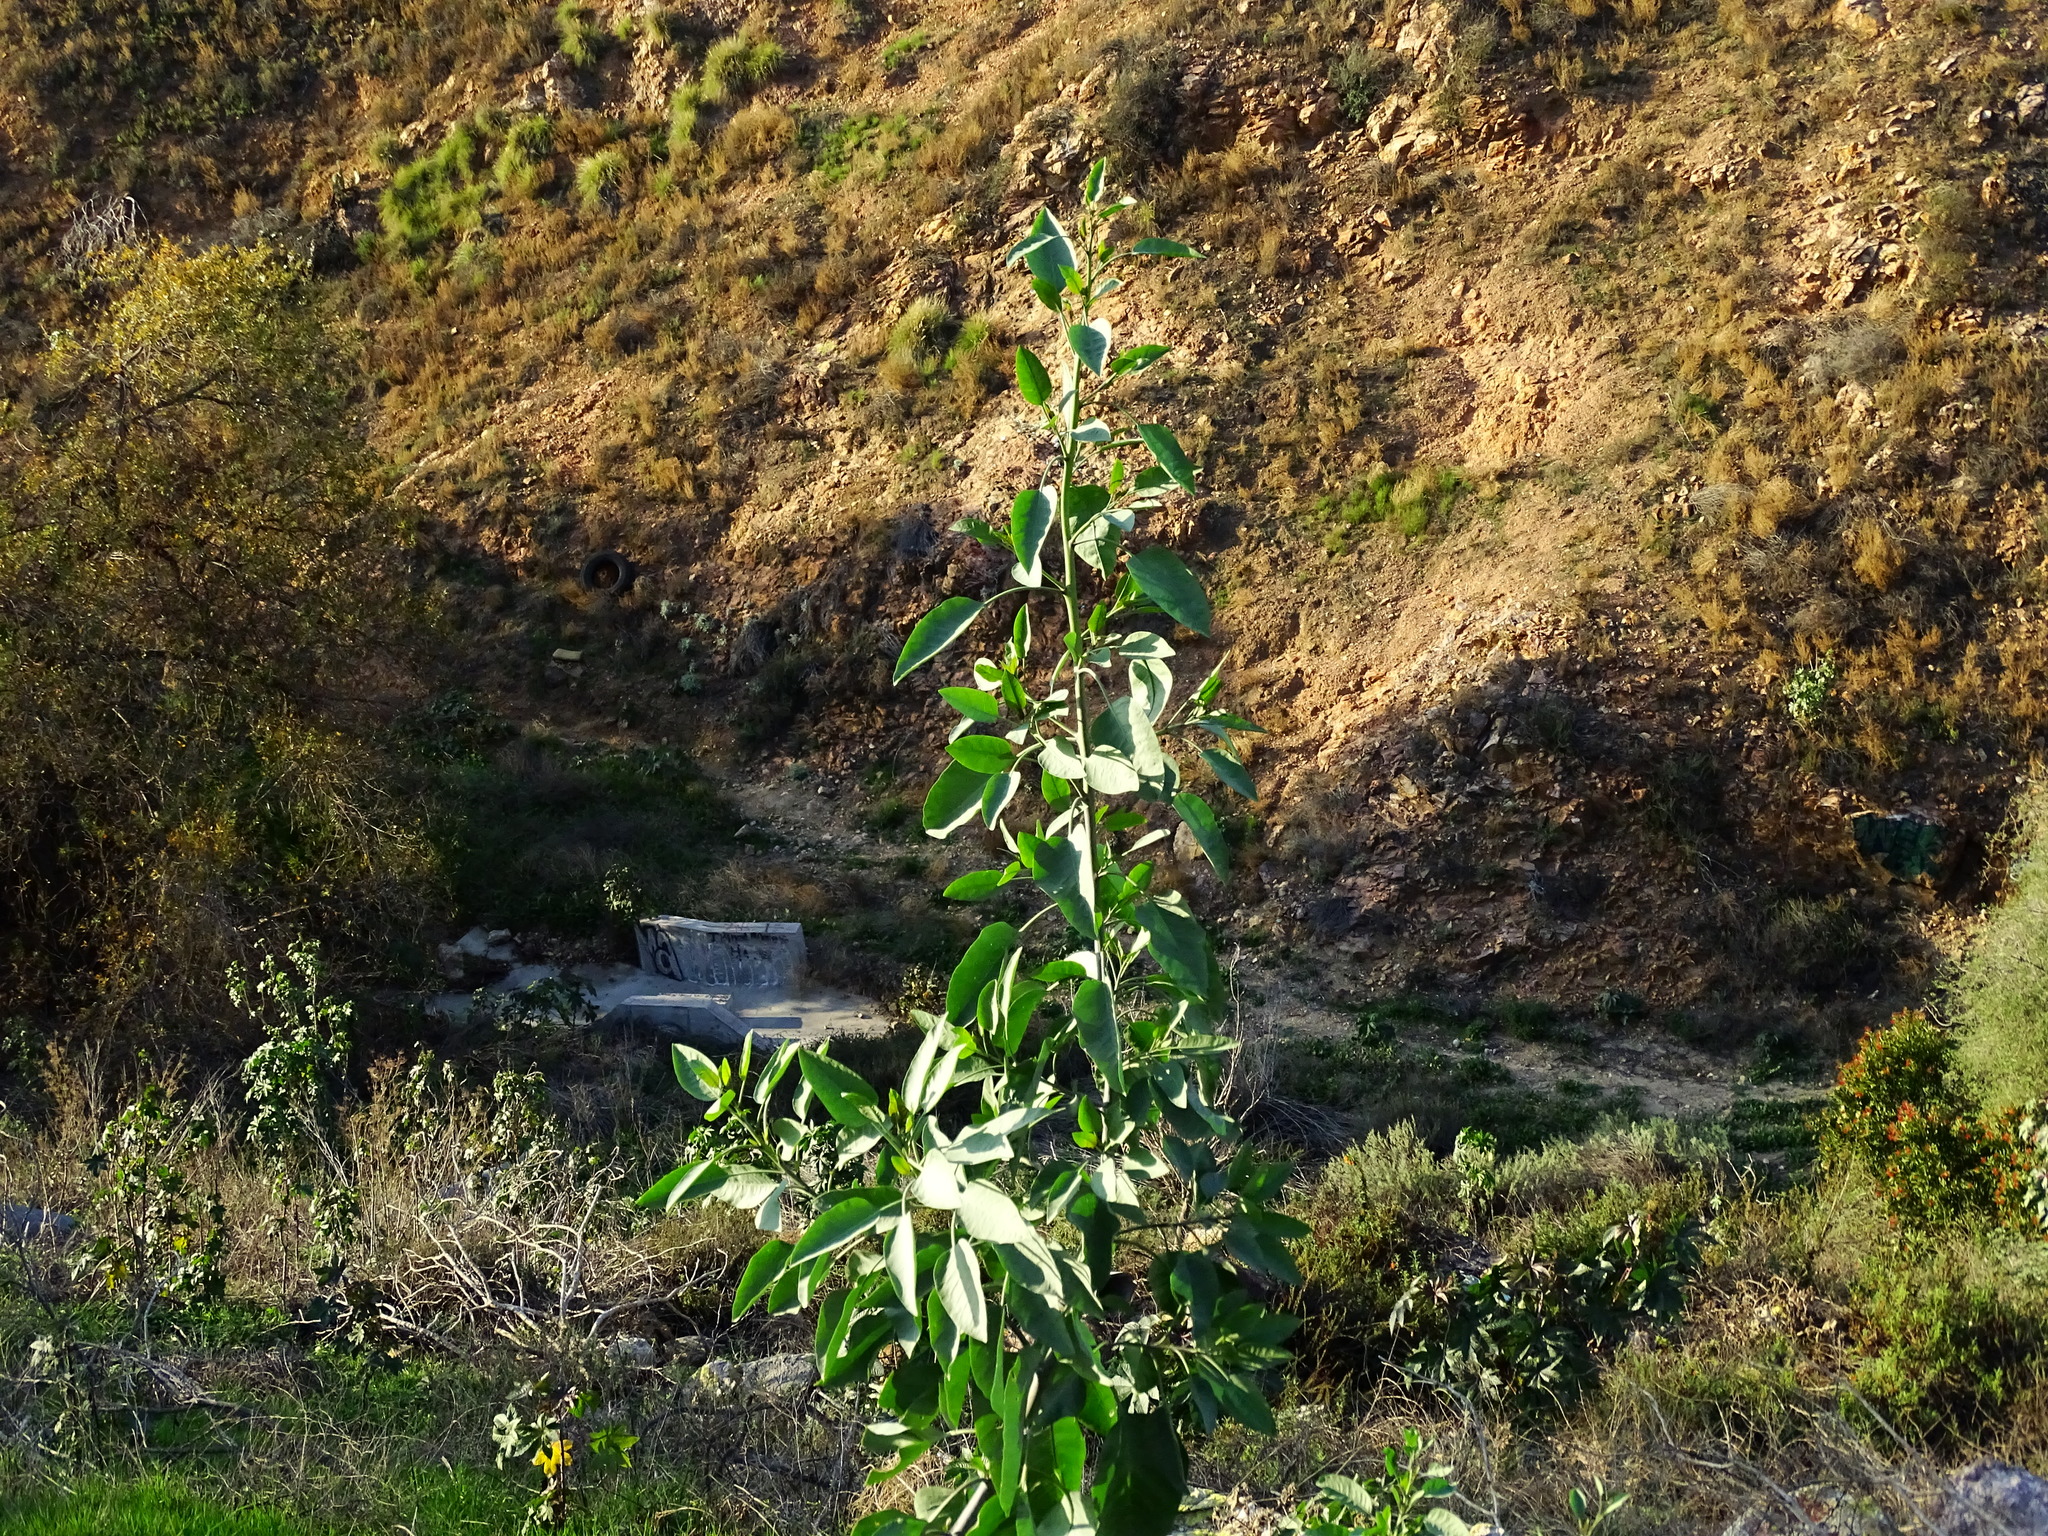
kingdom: Plantae
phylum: Tracheophyta
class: Magnoliopsida
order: Solanales
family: Solanaceae
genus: Nicotiana
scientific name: Nicotiana glauca
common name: Tree tobacco
